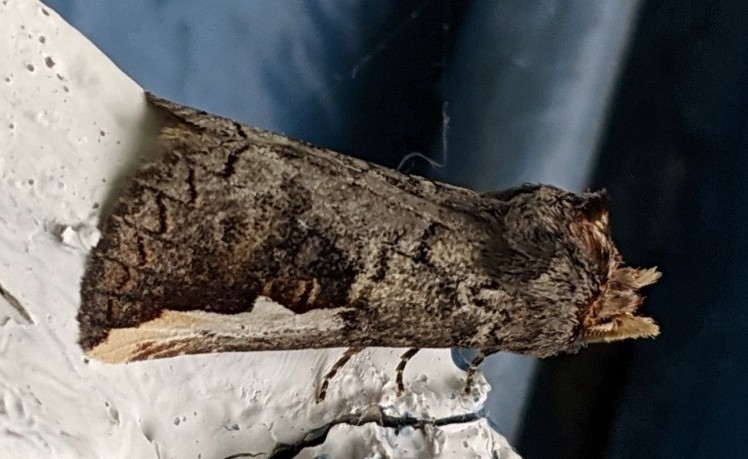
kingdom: Animalia
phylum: Arthropoda
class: Insecta
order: Lepidoptera
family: Notodontidae
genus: Symmerista
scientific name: Symmerista albifrons
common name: White-headed prominent
